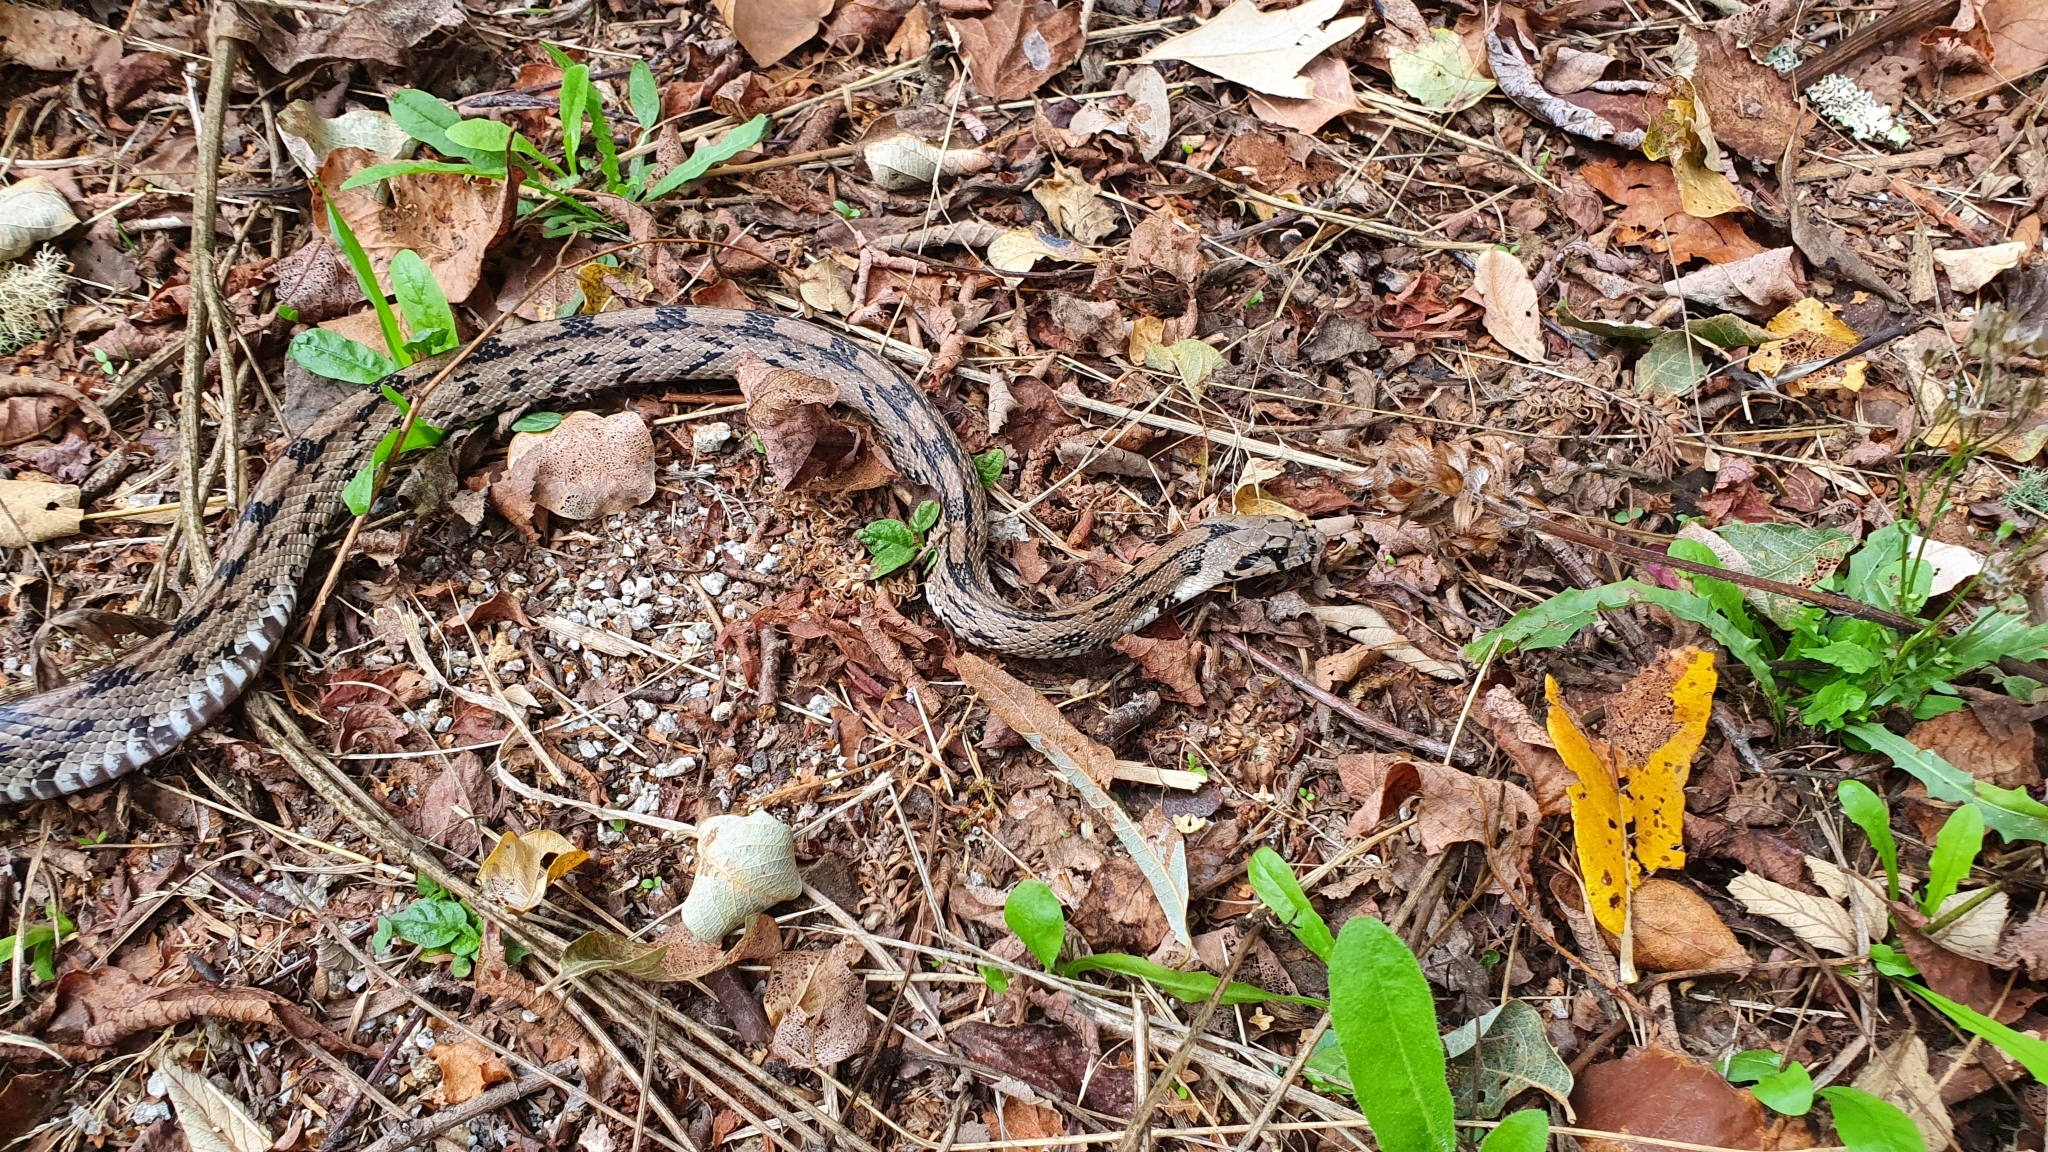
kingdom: Animalia
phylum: Chordata
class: Squamata
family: Colubridae
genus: Zamenis
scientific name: Zamenis scalaris
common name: Ladder snakes
